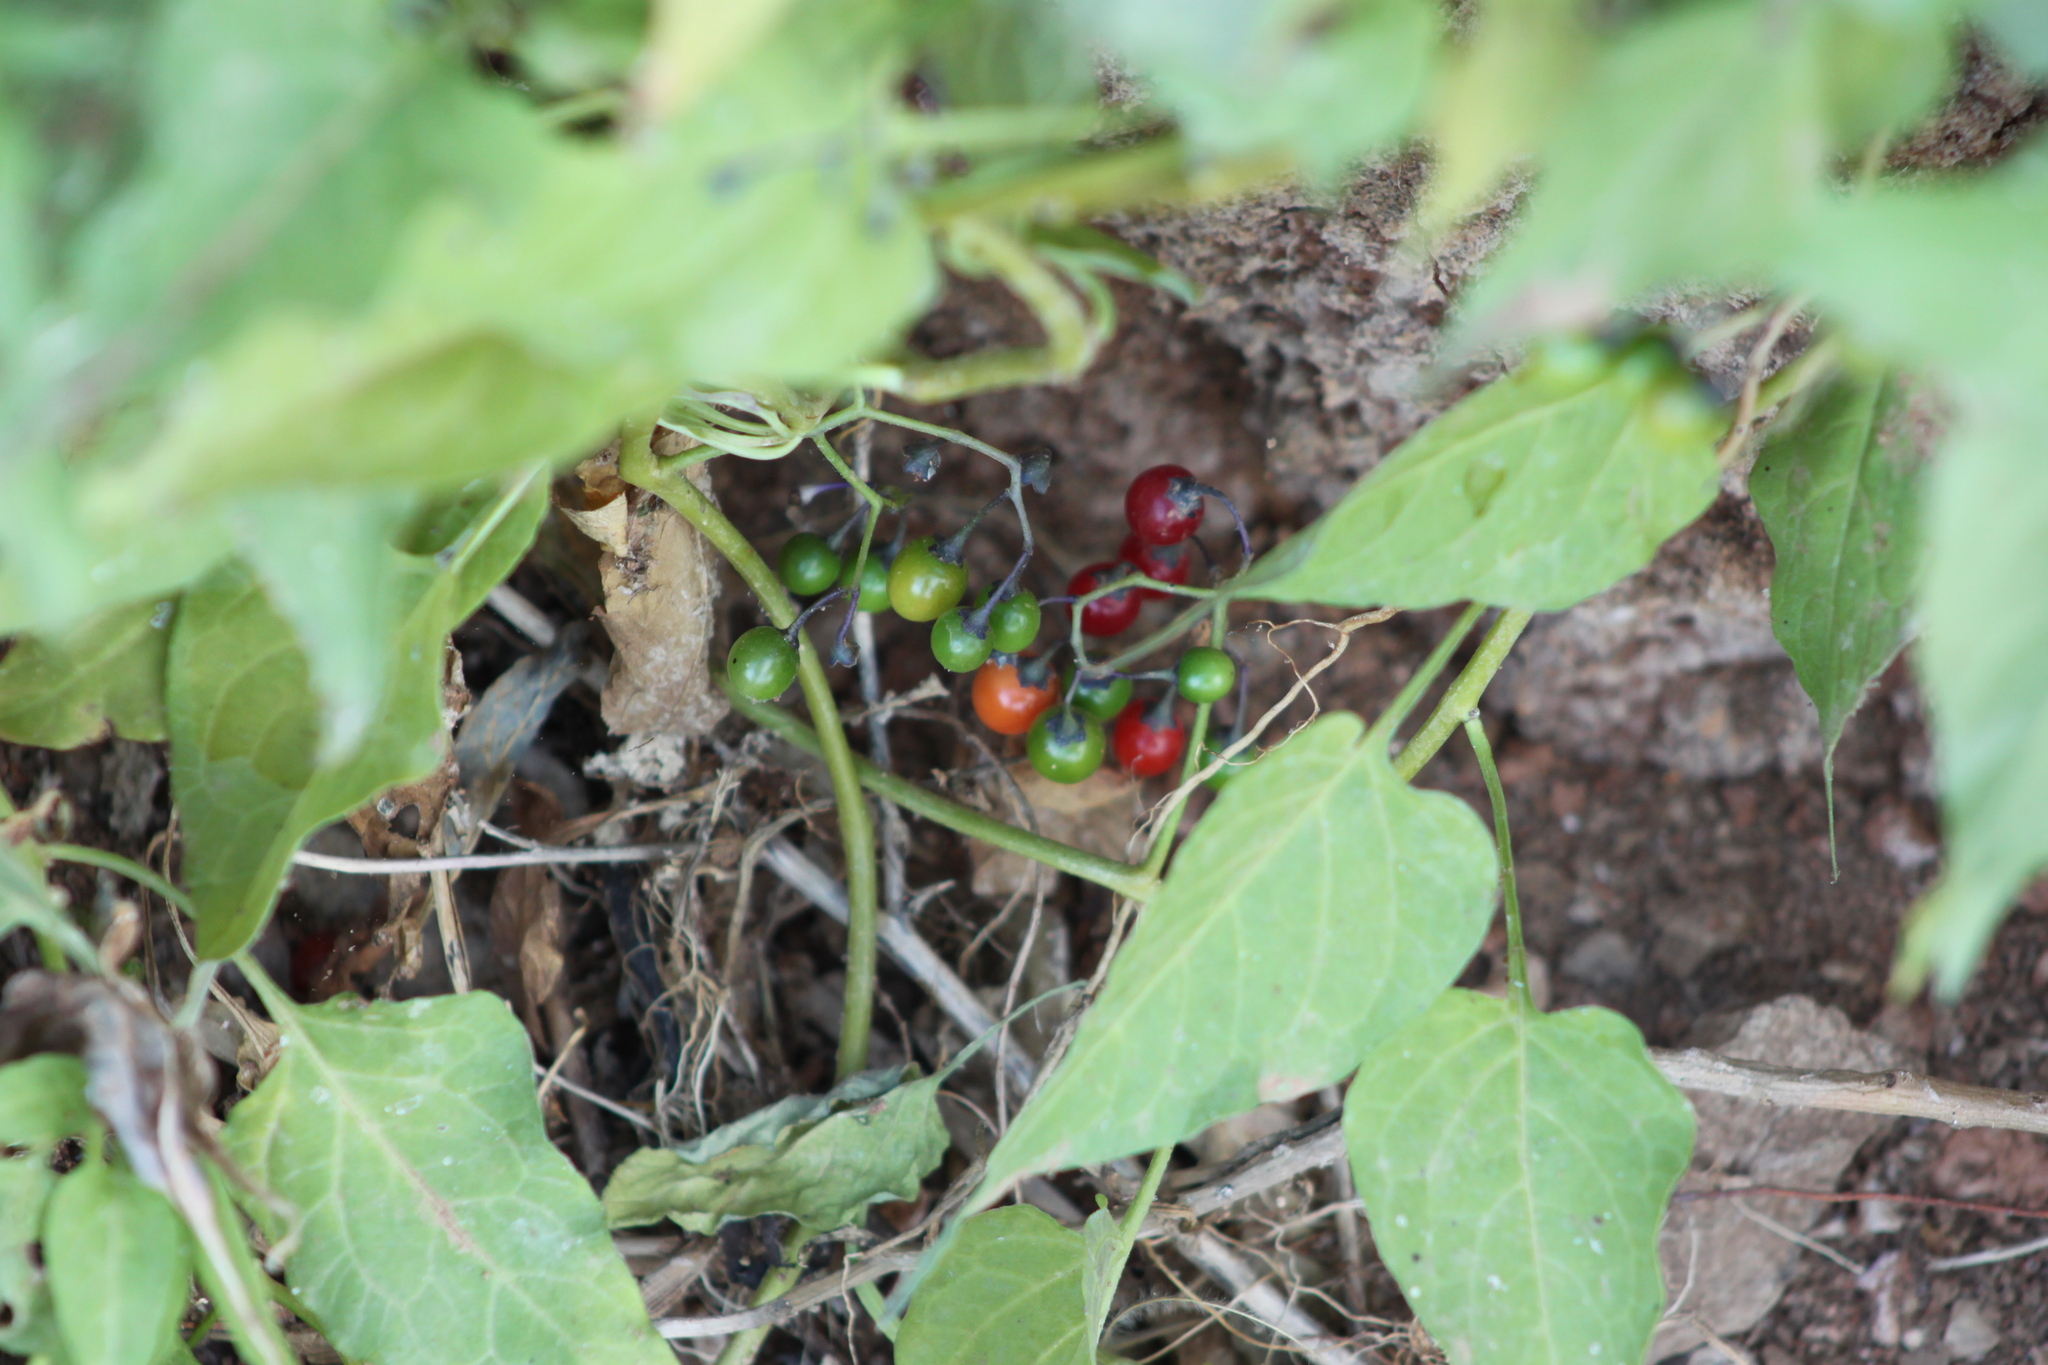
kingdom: Plantae
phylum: Tracheophyta
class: Magnoliopsida
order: Solanales
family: Solanaceae
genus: Solanum
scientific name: Solanum dulcamara
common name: Climbing nightshade
